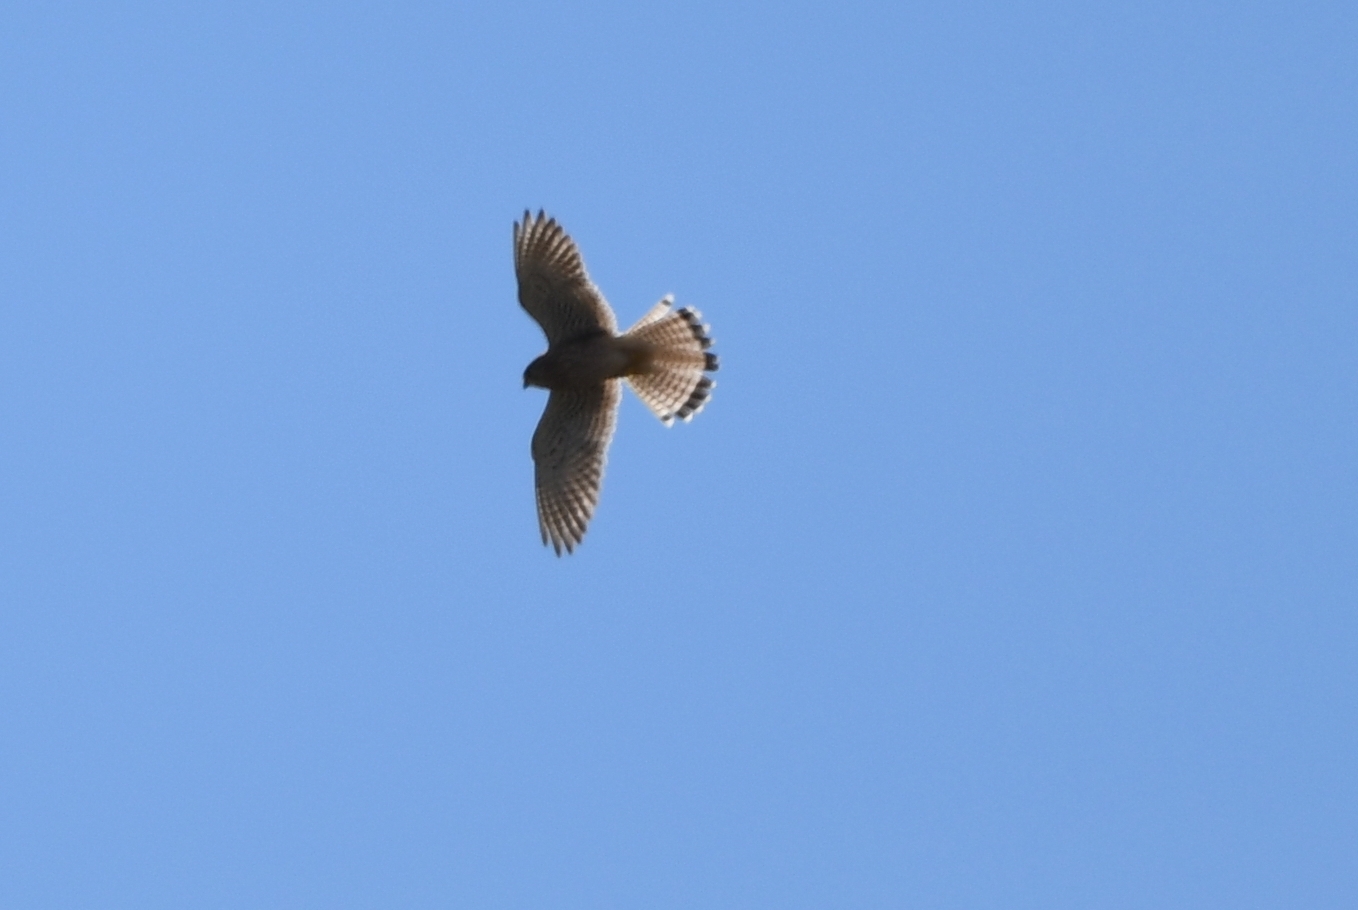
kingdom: Animalia
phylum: Chordata
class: Aves
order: Falconiformes
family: Falconidae
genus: Falco
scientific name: Falco tinnunculus
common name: Common kestrel
